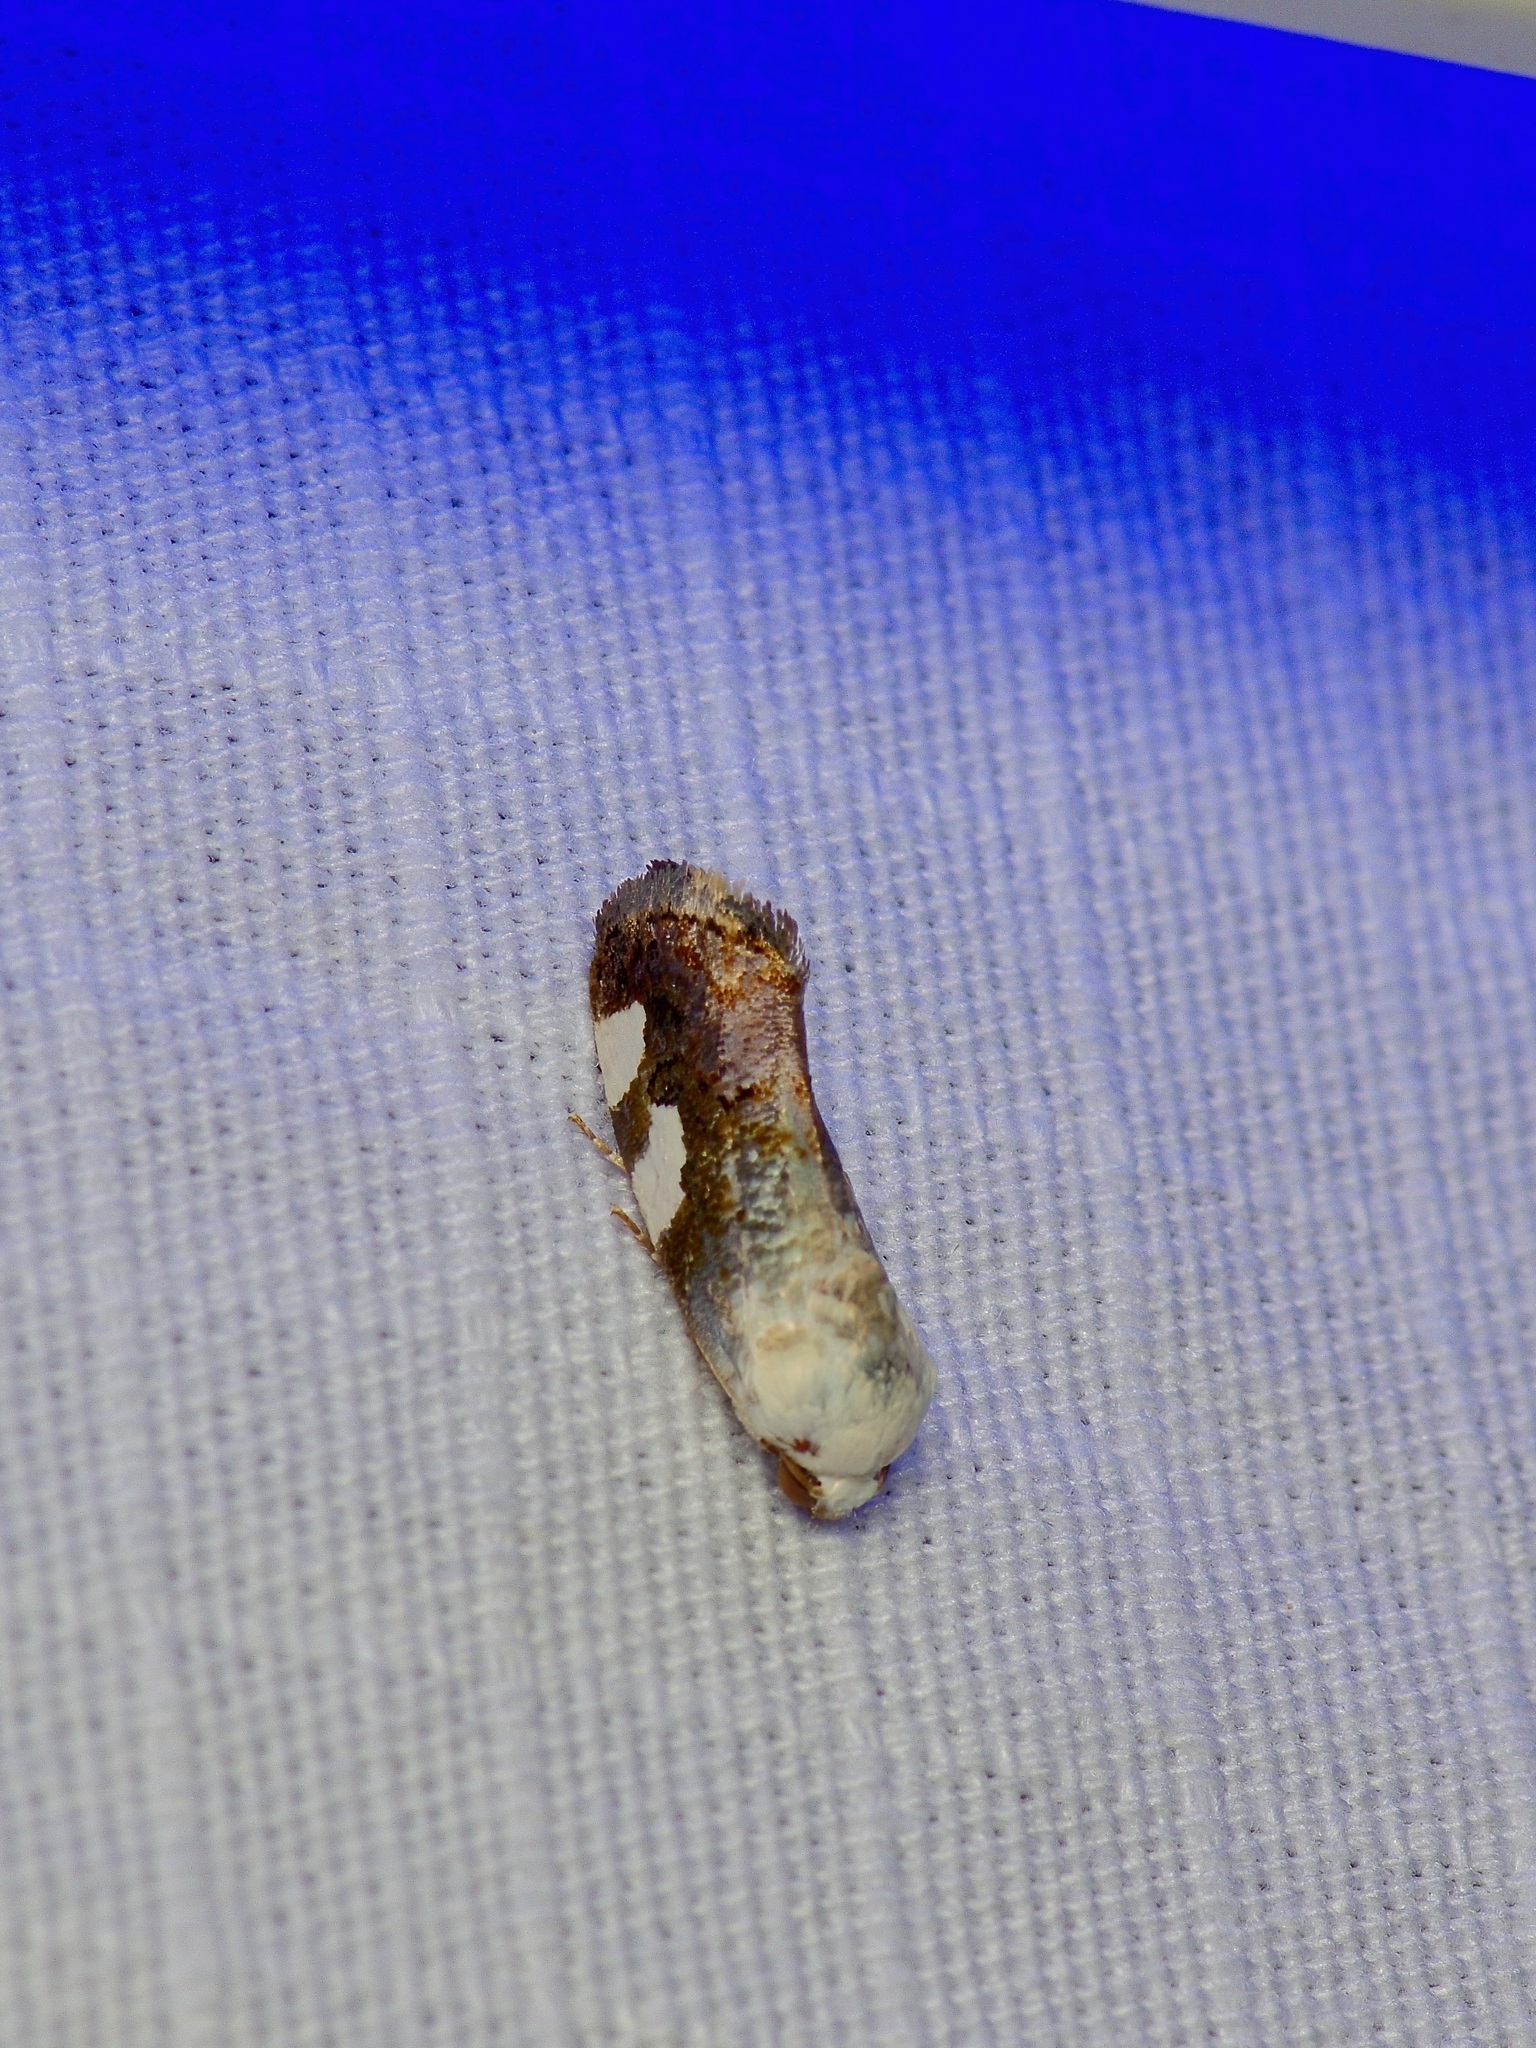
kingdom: Animalia
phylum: Arthropoda
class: Insecta
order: Lepidoptera
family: Noctuidae
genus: Acontia
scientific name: Acontia quadriplaga
